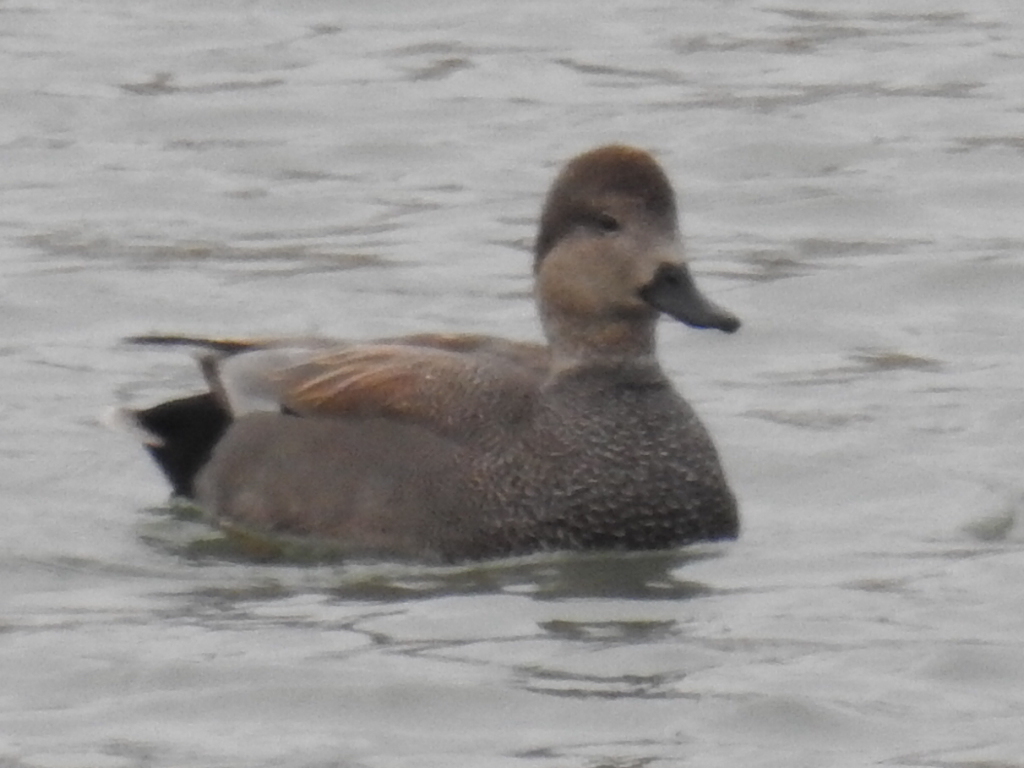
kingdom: Animalia
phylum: Chordata
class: Aves
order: Anseriformes
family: Anatidae
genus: Mareca
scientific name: Mareca strepera
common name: Gadwall
